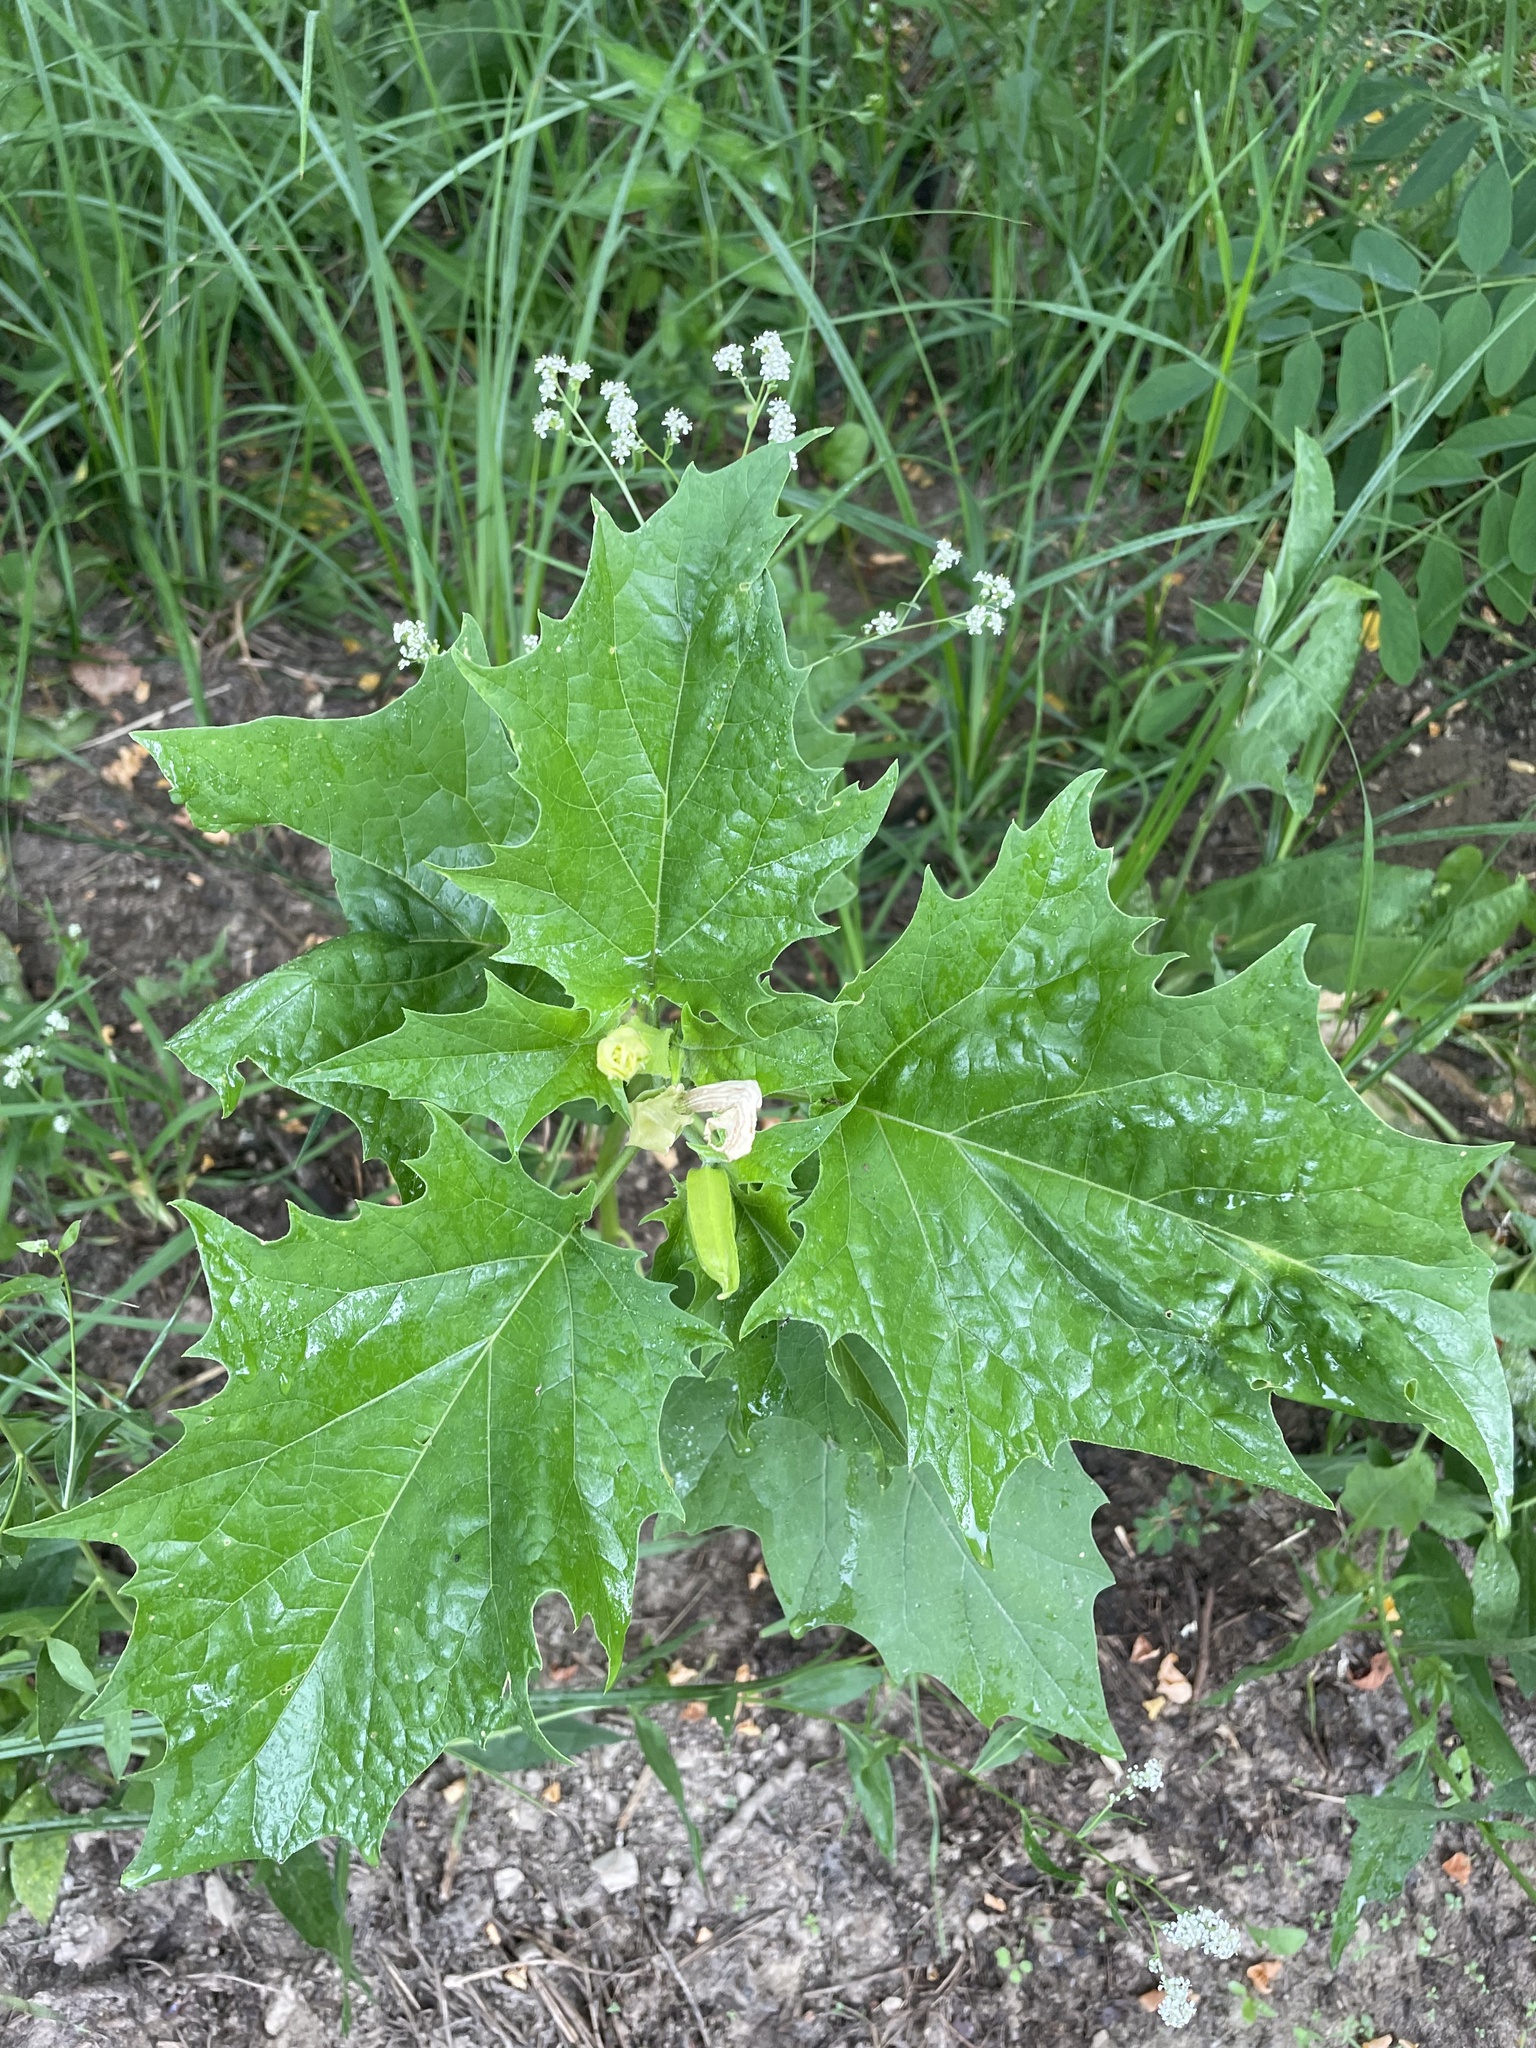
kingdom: Plantae
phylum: Tracheophyta
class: Magnoliopsida
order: Solanales
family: Solanaceae
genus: Datura
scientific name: Datura stramonium
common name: Thorn-apple
